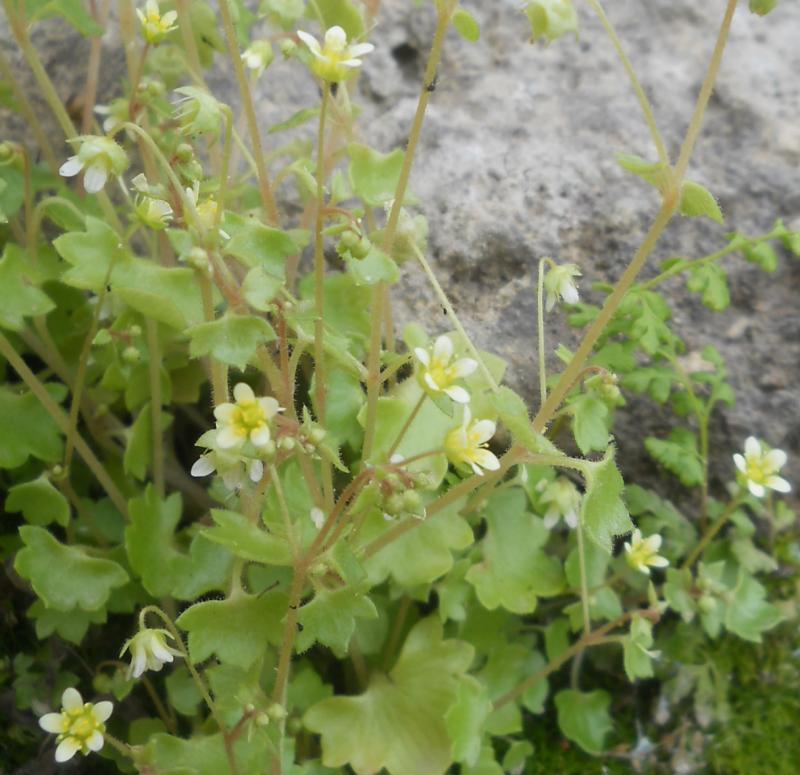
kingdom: Plantae
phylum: Tracheophyta
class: Magnoliopsida
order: Saxifragales
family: Saxifragaceae
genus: Saxifraga
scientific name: Saxifraga hederacea
